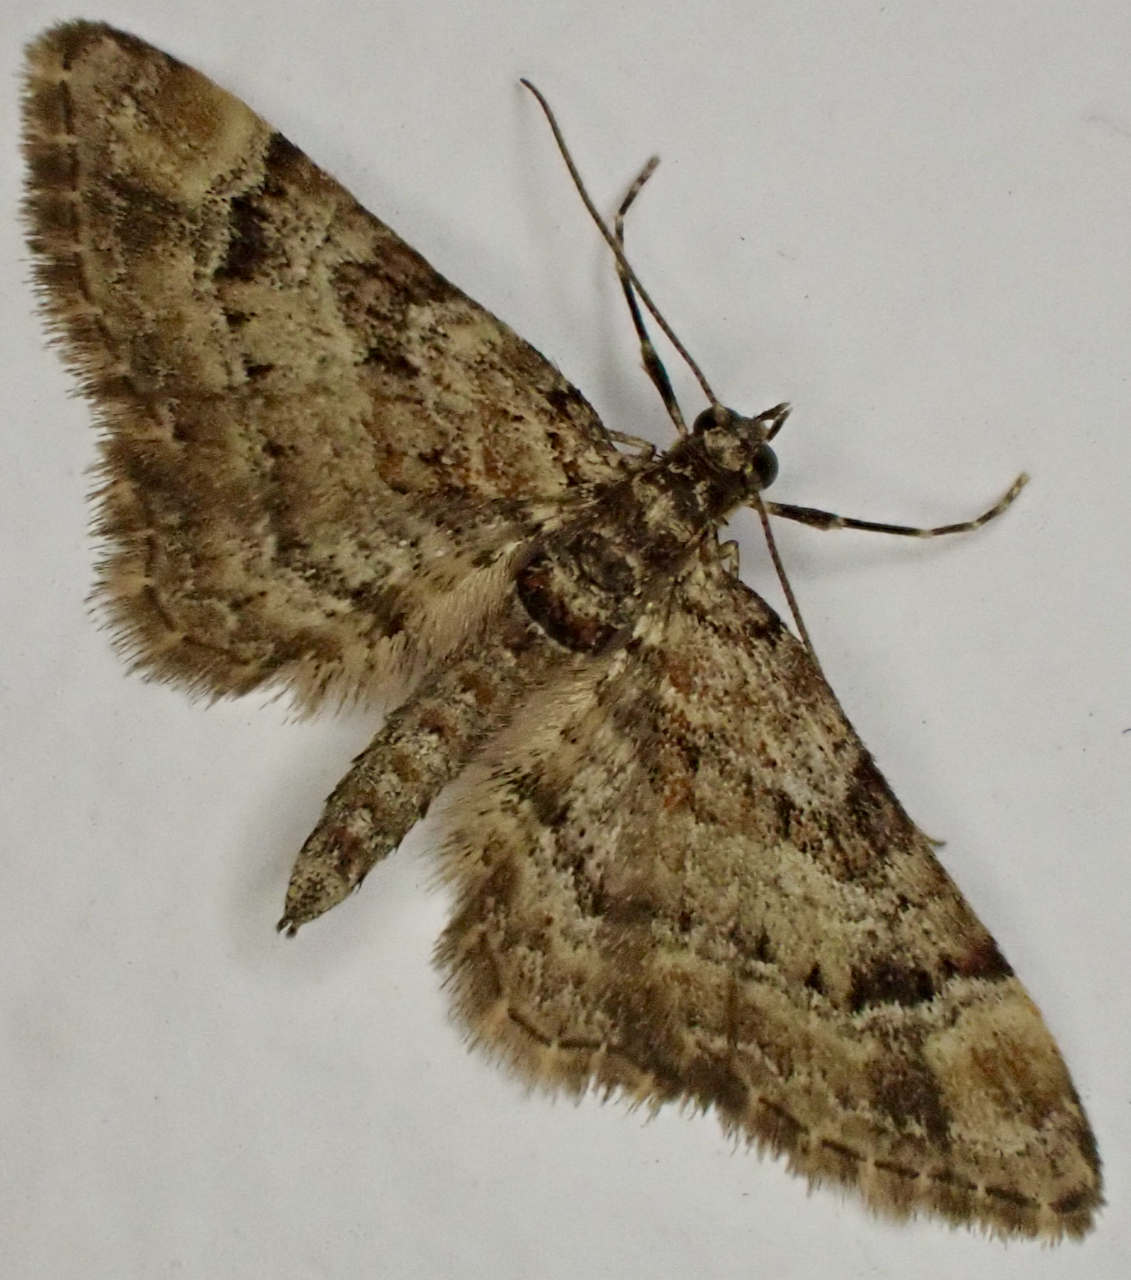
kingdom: Animalia
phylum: Arthropoda
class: Insecta
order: Lepidoptera
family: Geometridae
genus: Gymnoscelis
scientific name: Gymnoscelis rufifasciata
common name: Double-striped pug
